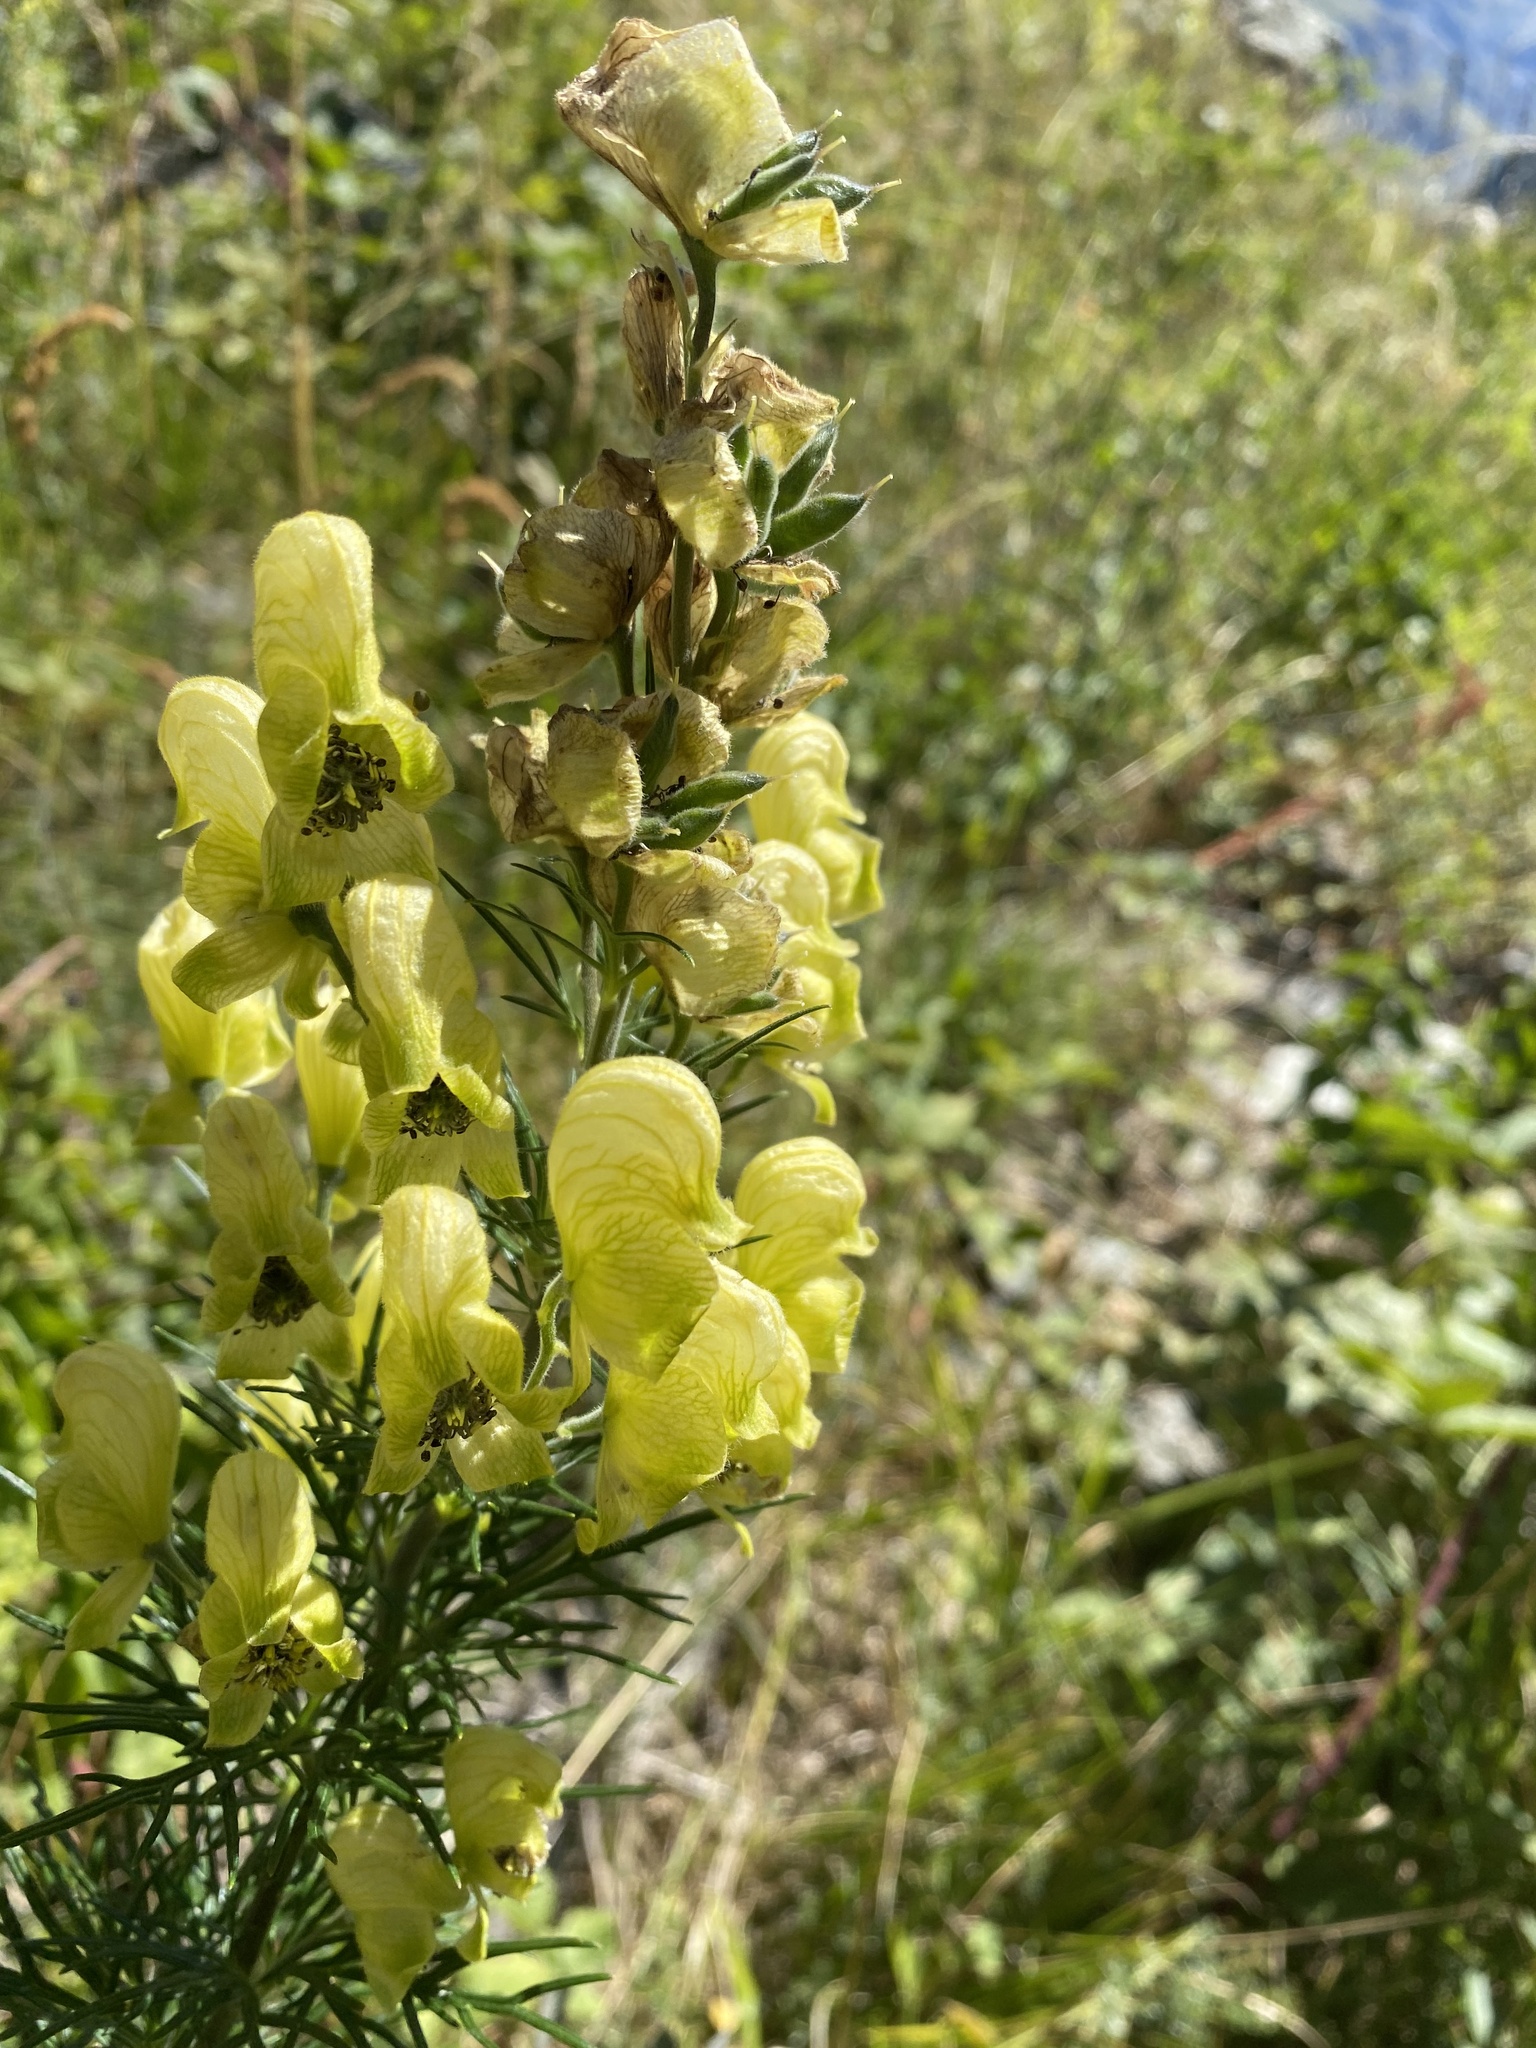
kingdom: Plantae
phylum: Tracheophyta
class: Magnoliopsida
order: Ranunculales
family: Ranunculaceae
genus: Aconitum
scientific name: Aconitum anthora
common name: Yellow monkshood
